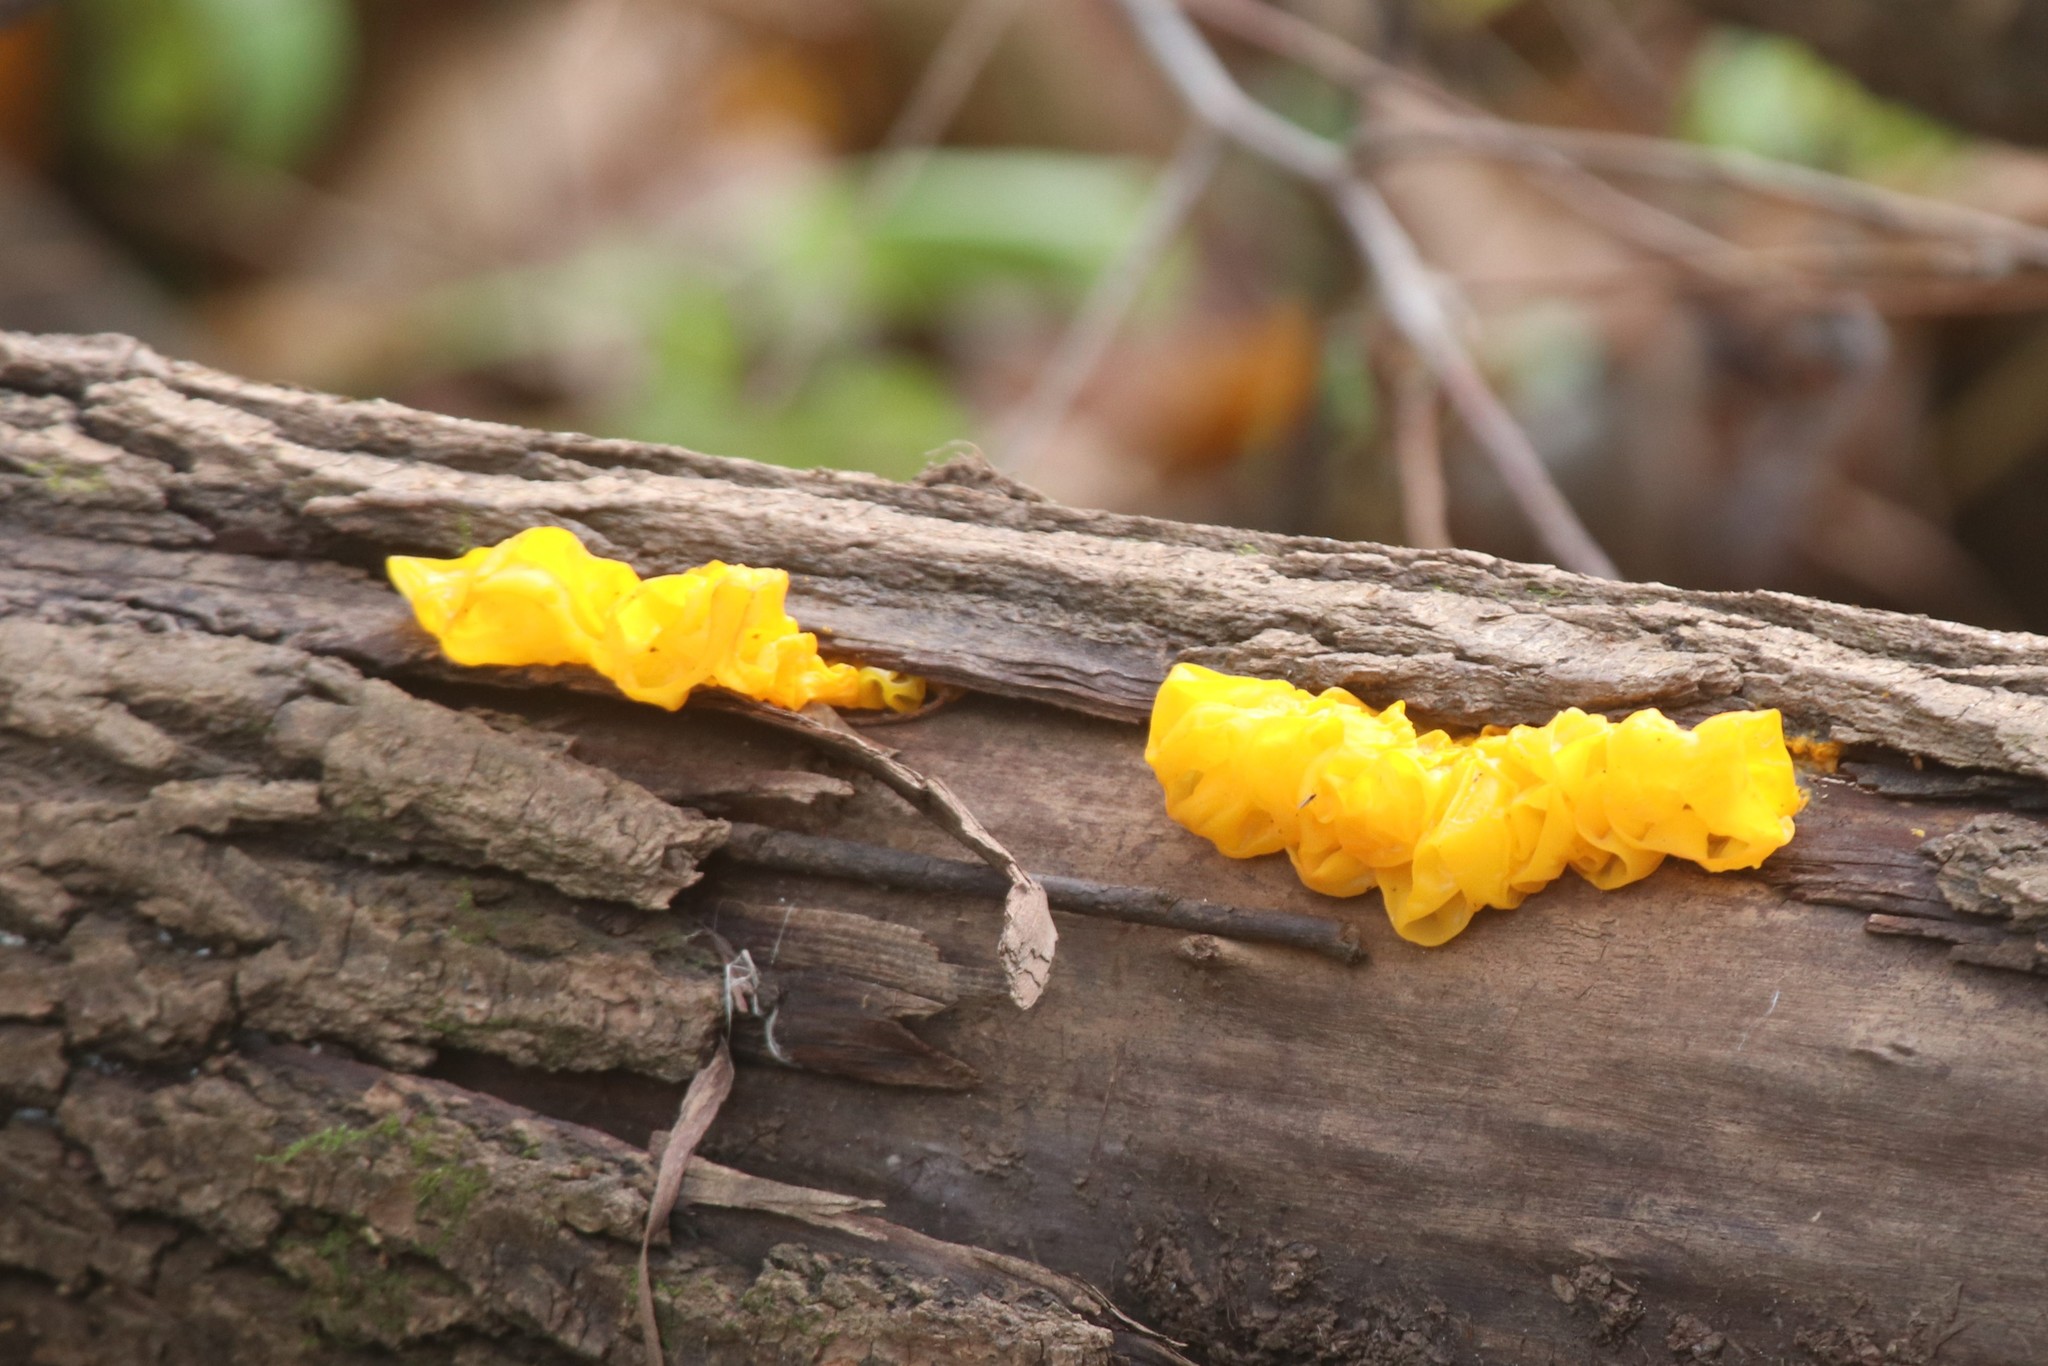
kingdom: Fungi
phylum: Basidiomycota
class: Tremellomycetes
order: Tremellales
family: Tremellaceae
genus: Tremella
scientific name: Tremella mesenterica
